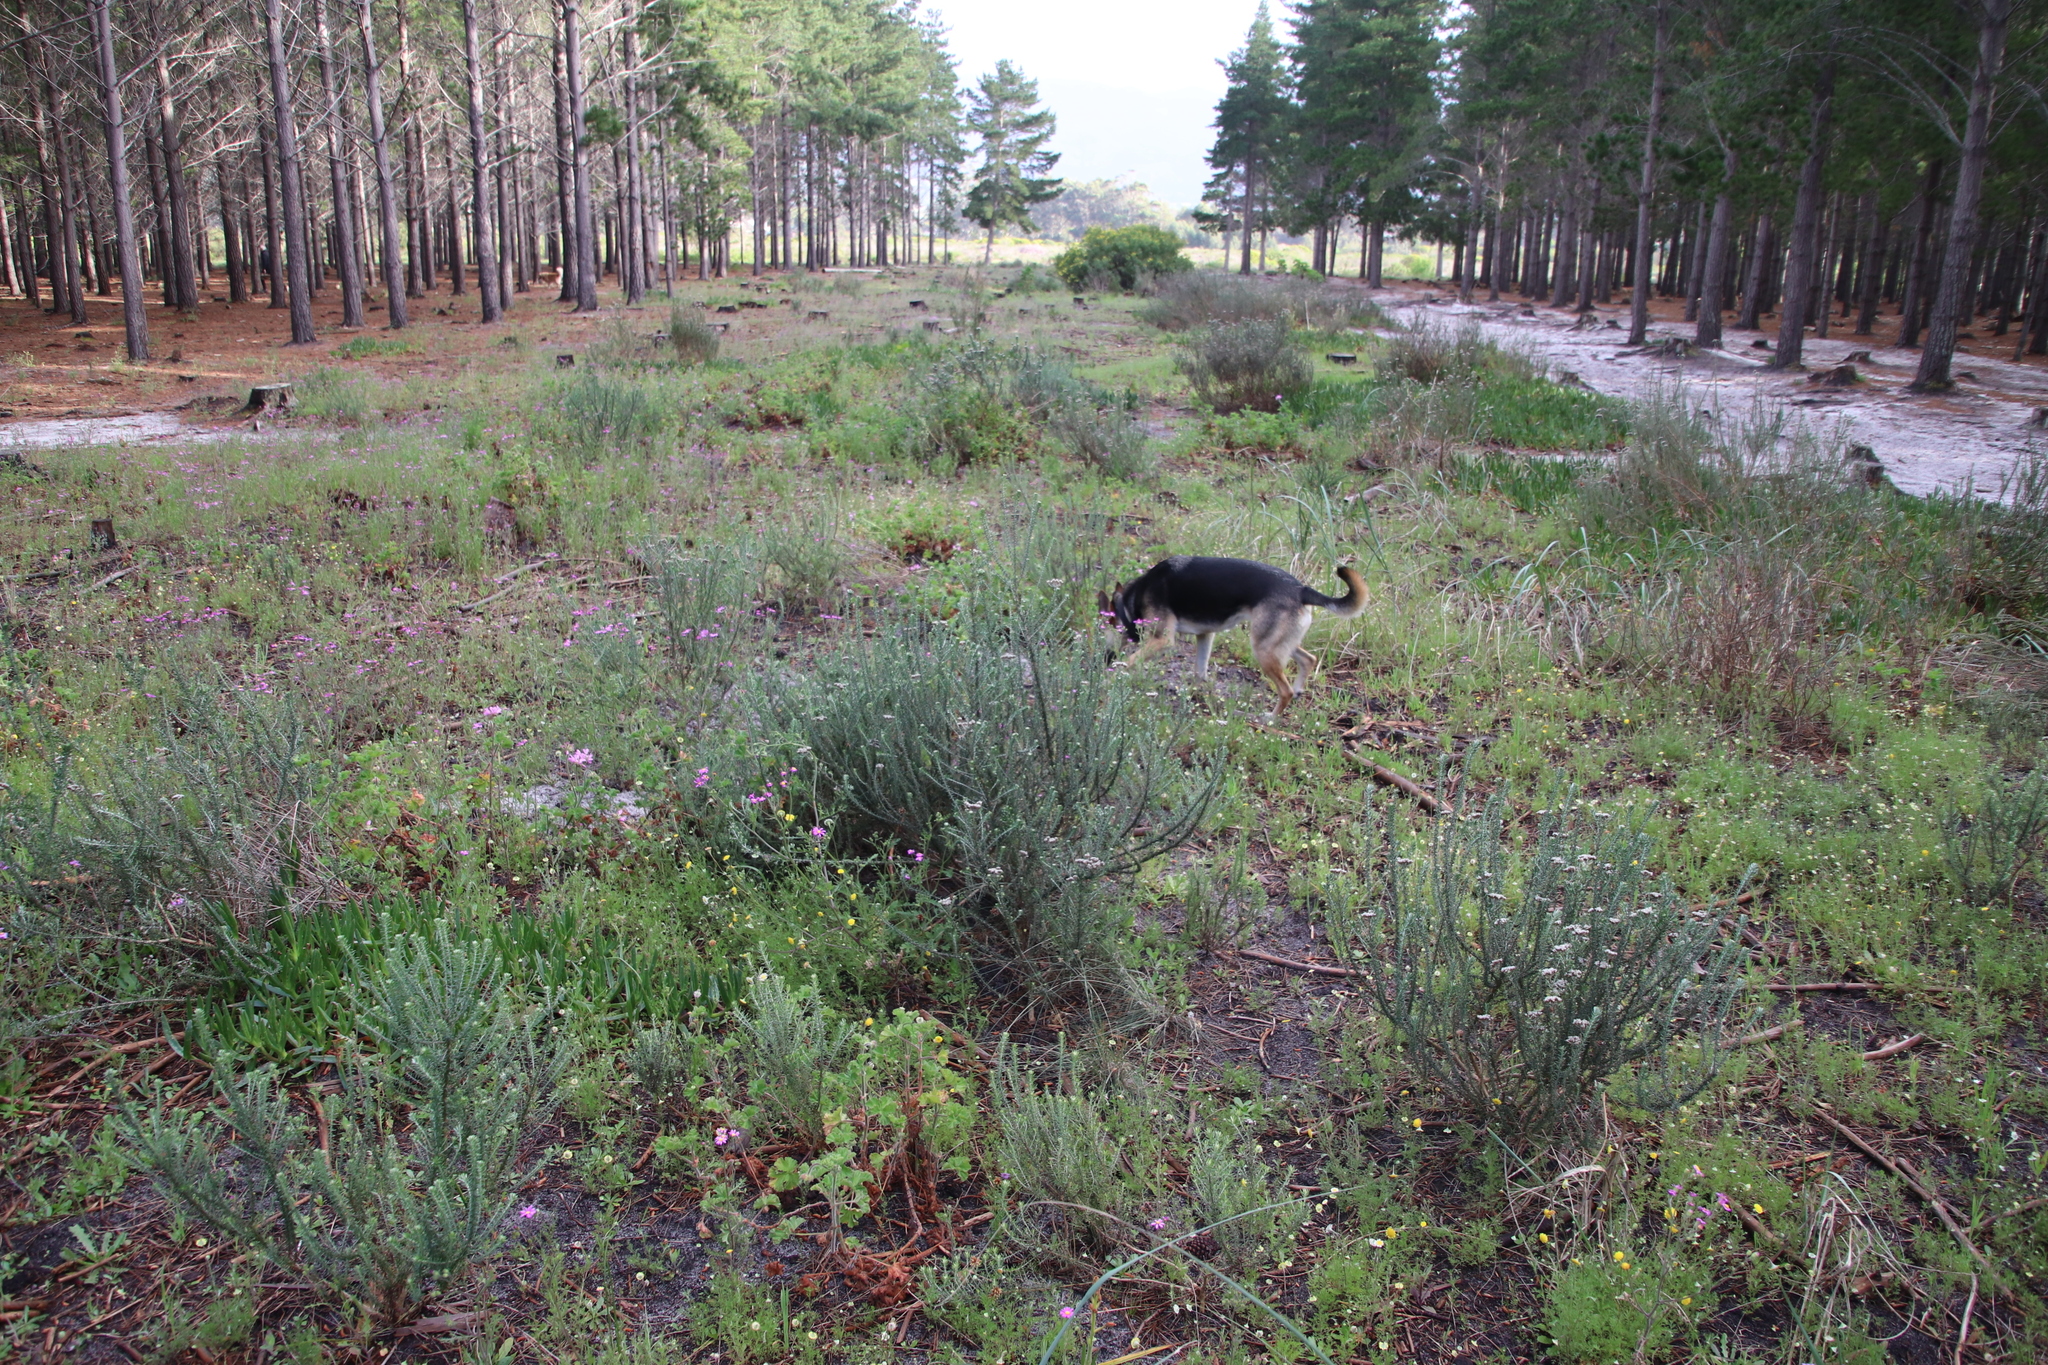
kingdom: Plantae
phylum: Tracheophyta
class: Magnoliopsida
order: Asterales
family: Asteraceae
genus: Metalasia
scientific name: Metalasia densa
